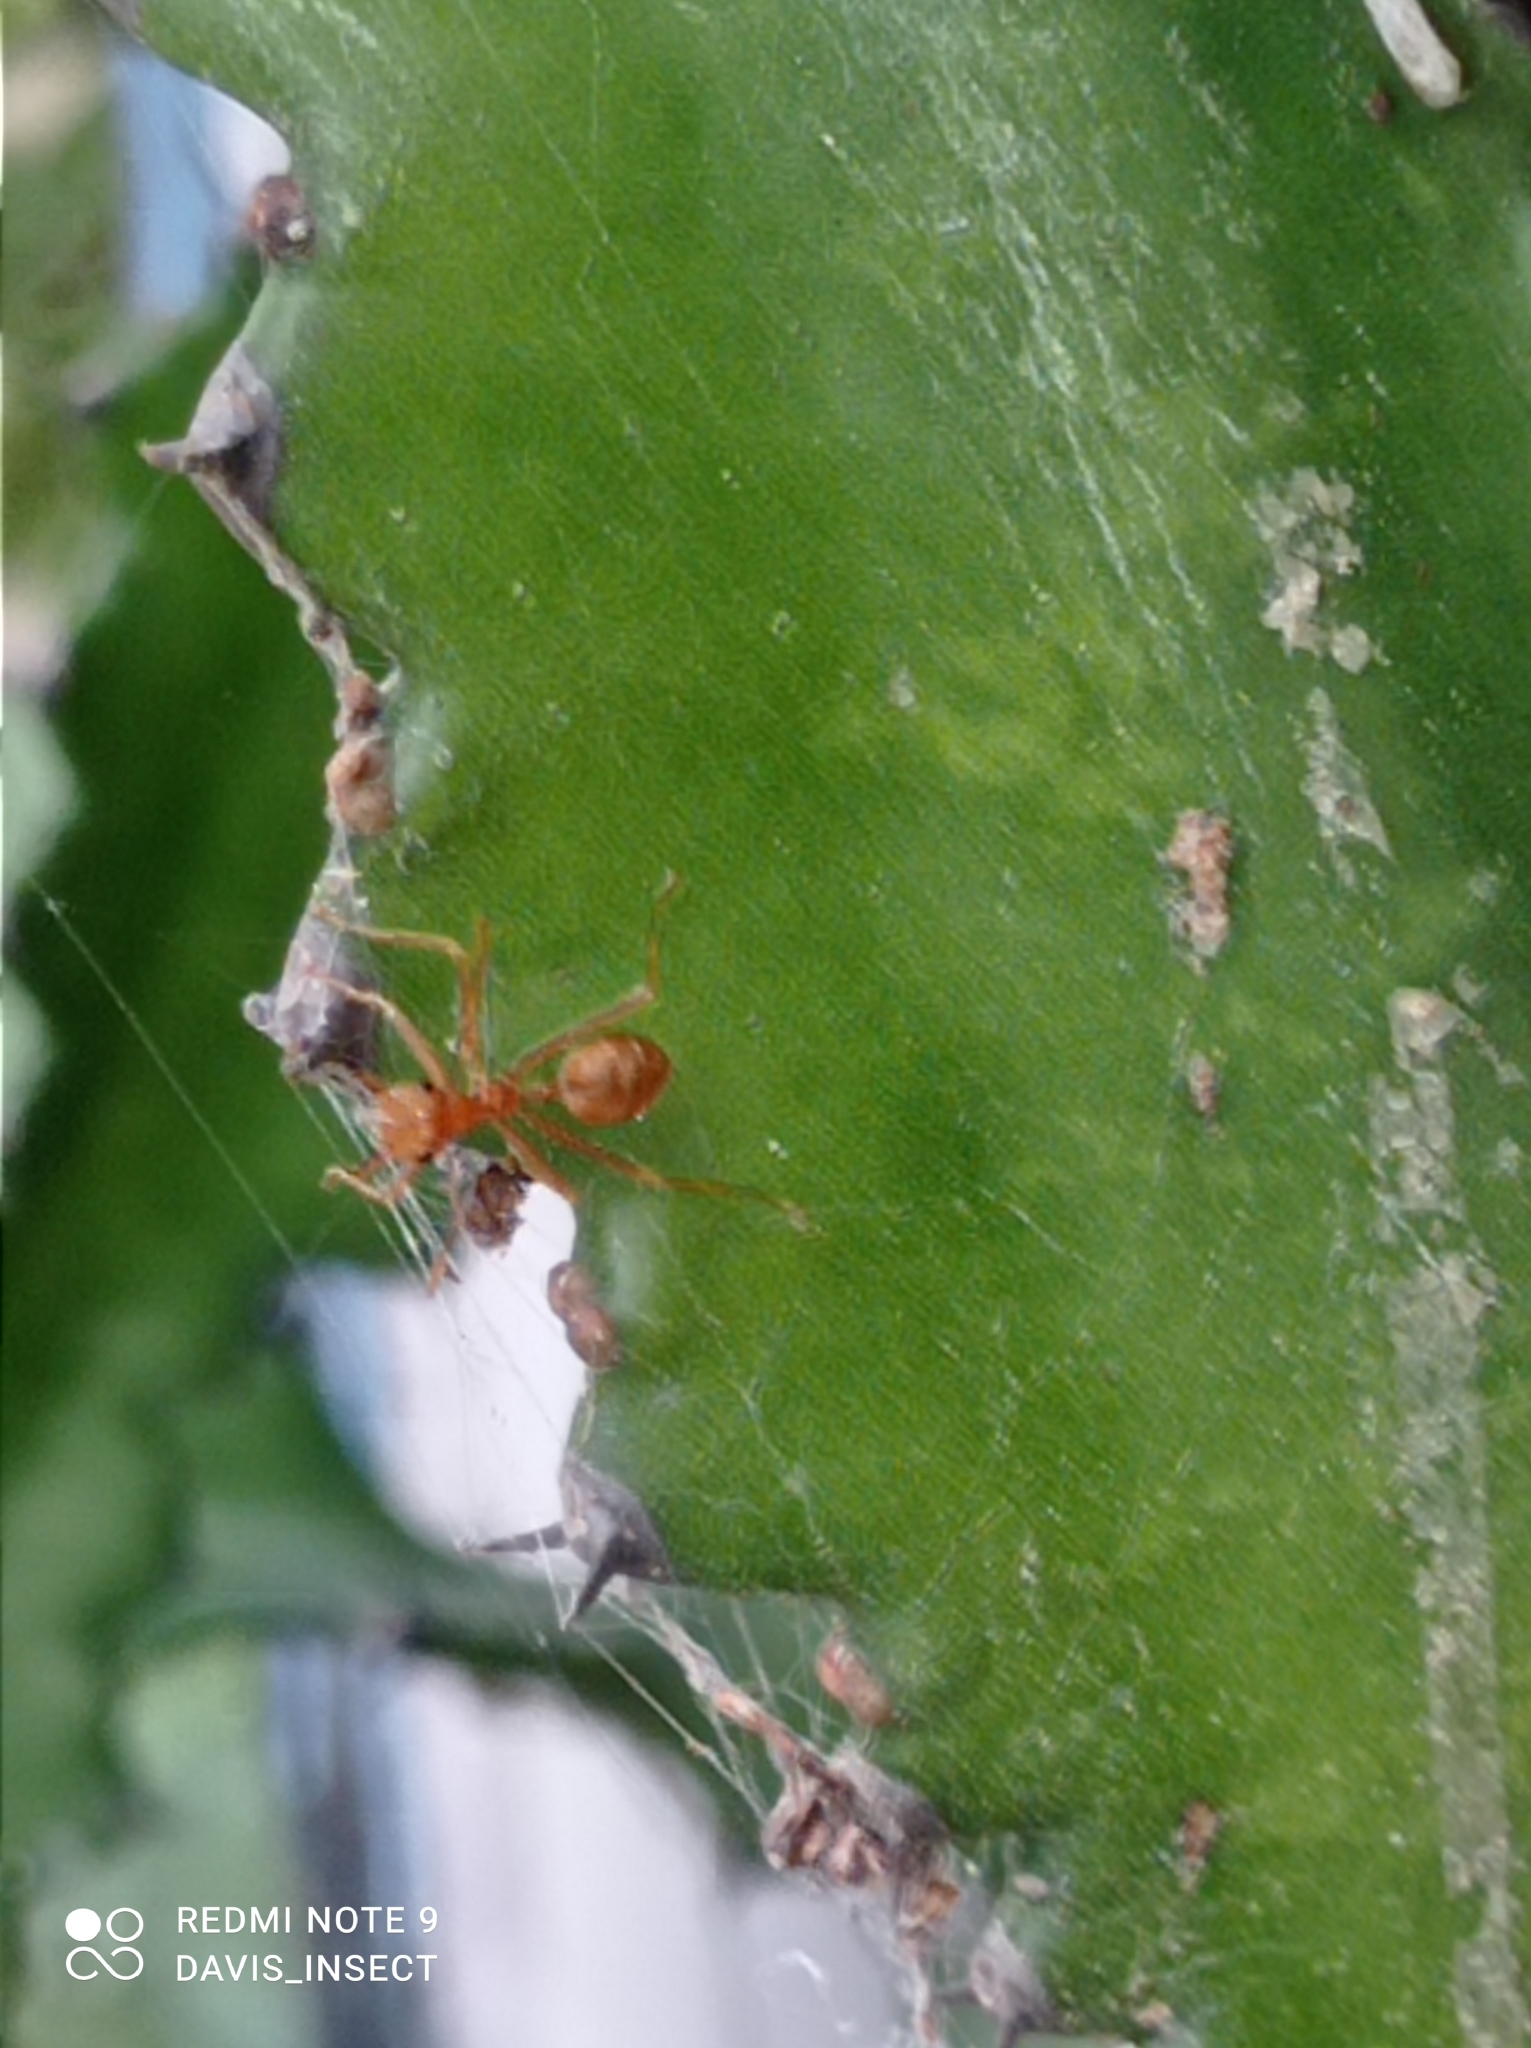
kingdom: Animalia
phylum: Arthropoda
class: Insecta
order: Hymenoptera
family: Formicidae
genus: Oecophylla
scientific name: Oecophylla smaragdina
